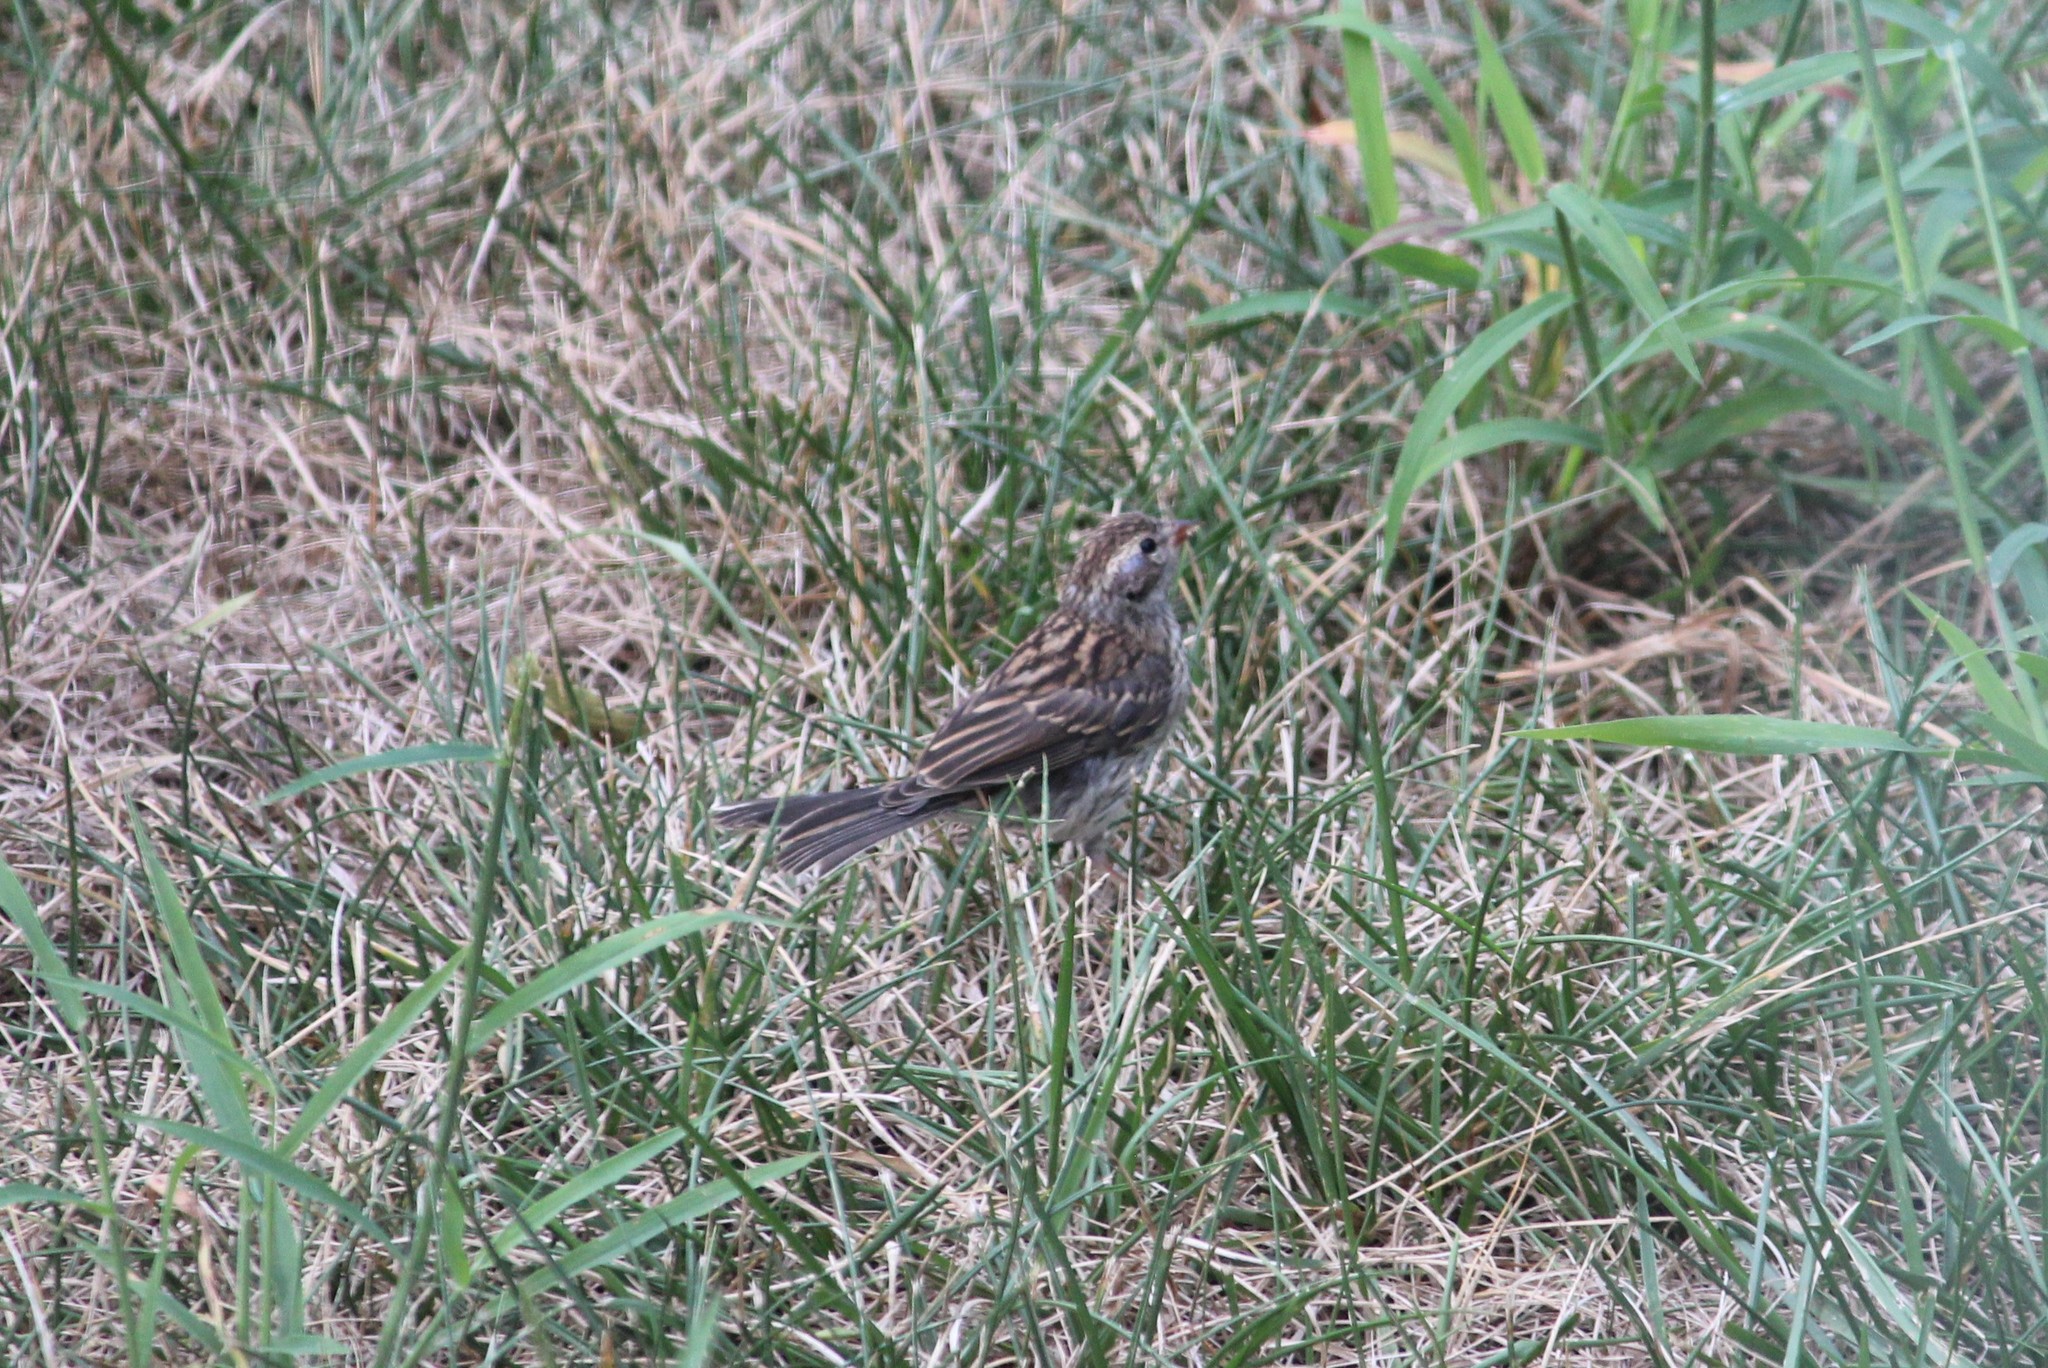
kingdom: Animalia
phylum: Chordata
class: Aves
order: Passeriformes
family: Passerellidae
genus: Spizella
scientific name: Spizella passerina
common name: Chipping sparrow
